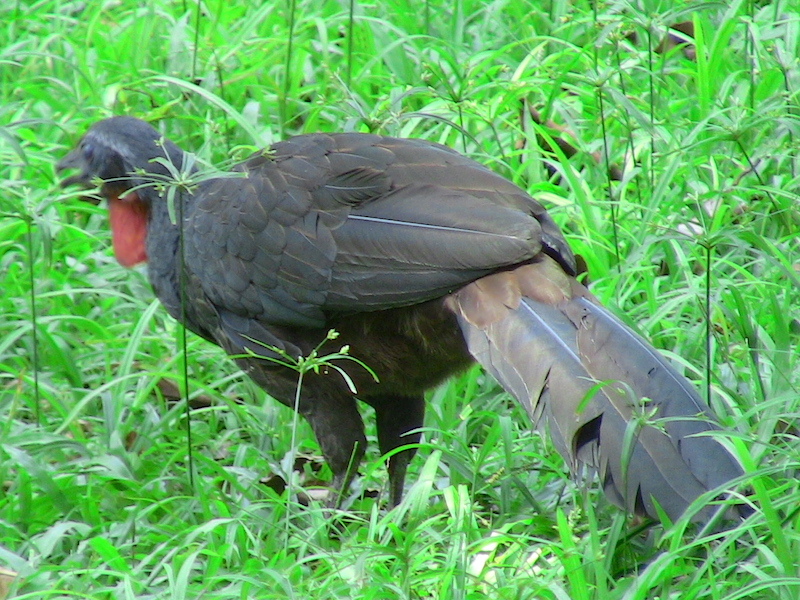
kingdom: Animalia
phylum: Chordata
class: Aves
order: Galliformes
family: Cracidae
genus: Penelope
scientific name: Penelope superciliaris
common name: Rusty-margined guan
